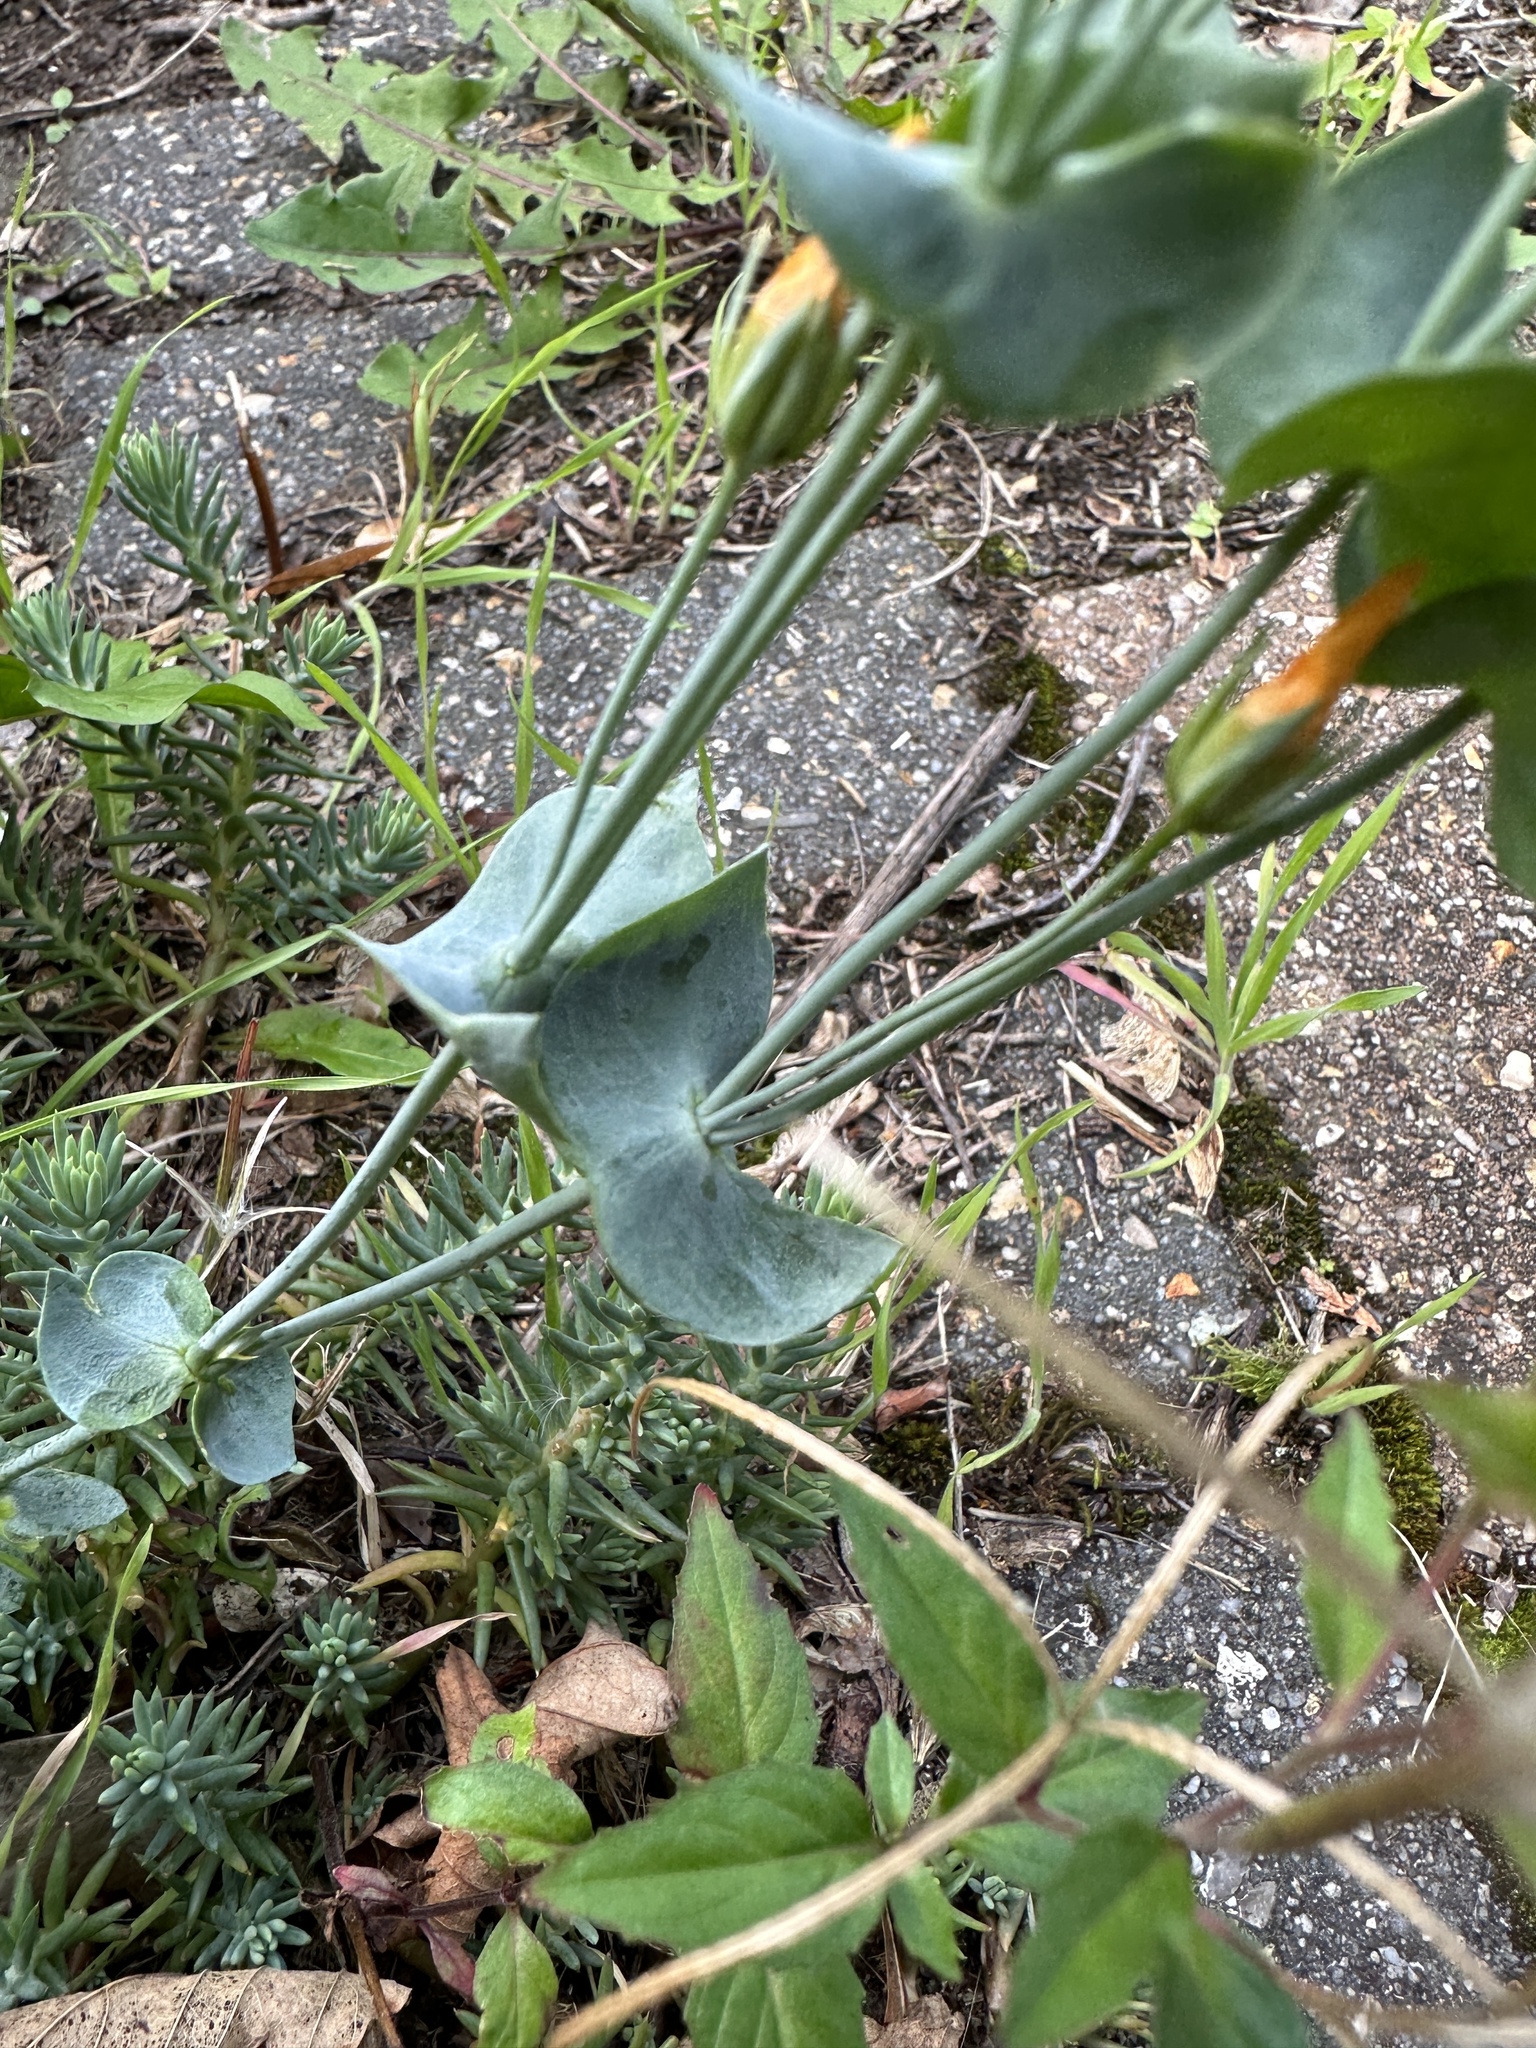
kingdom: Plantae
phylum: Tracheophyta
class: Magnoliopsida
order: Gentianales
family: Gentianaceae
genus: Blackstonia
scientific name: Blackstonia perfoliata
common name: Yellow-wort
